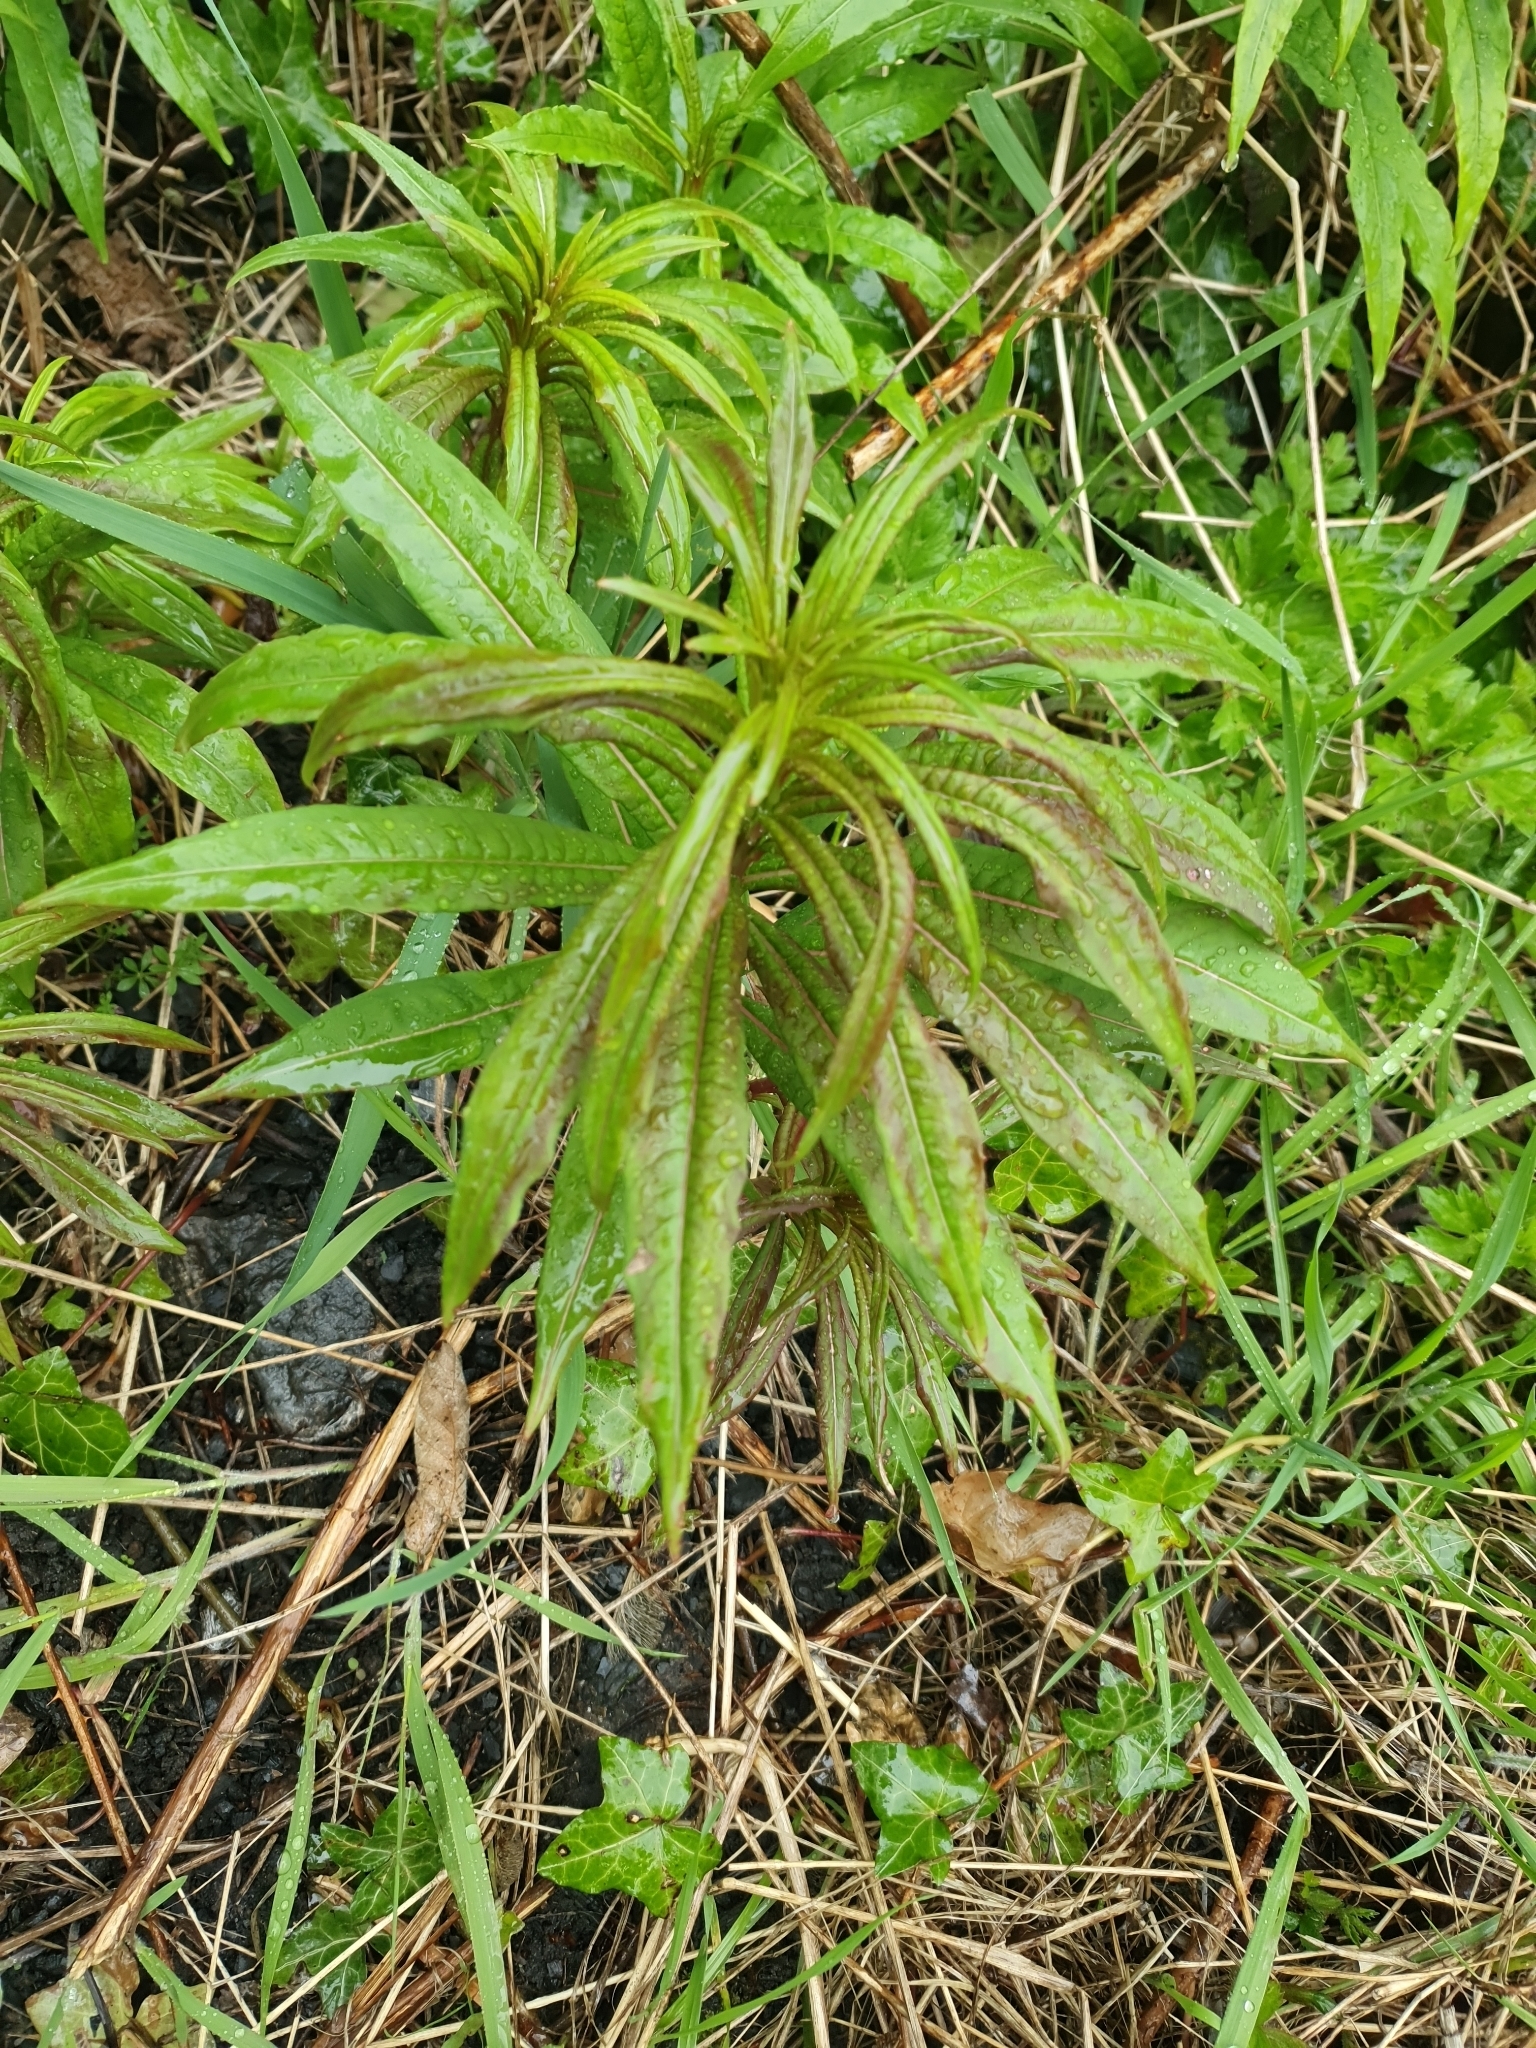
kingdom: Plantae
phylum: Tracheophyta
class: Magnoliopsida
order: Myrtales
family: Onagraceae
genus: Chamaenerion
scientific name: Chamaenerion angustifolium
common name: Fireweed
